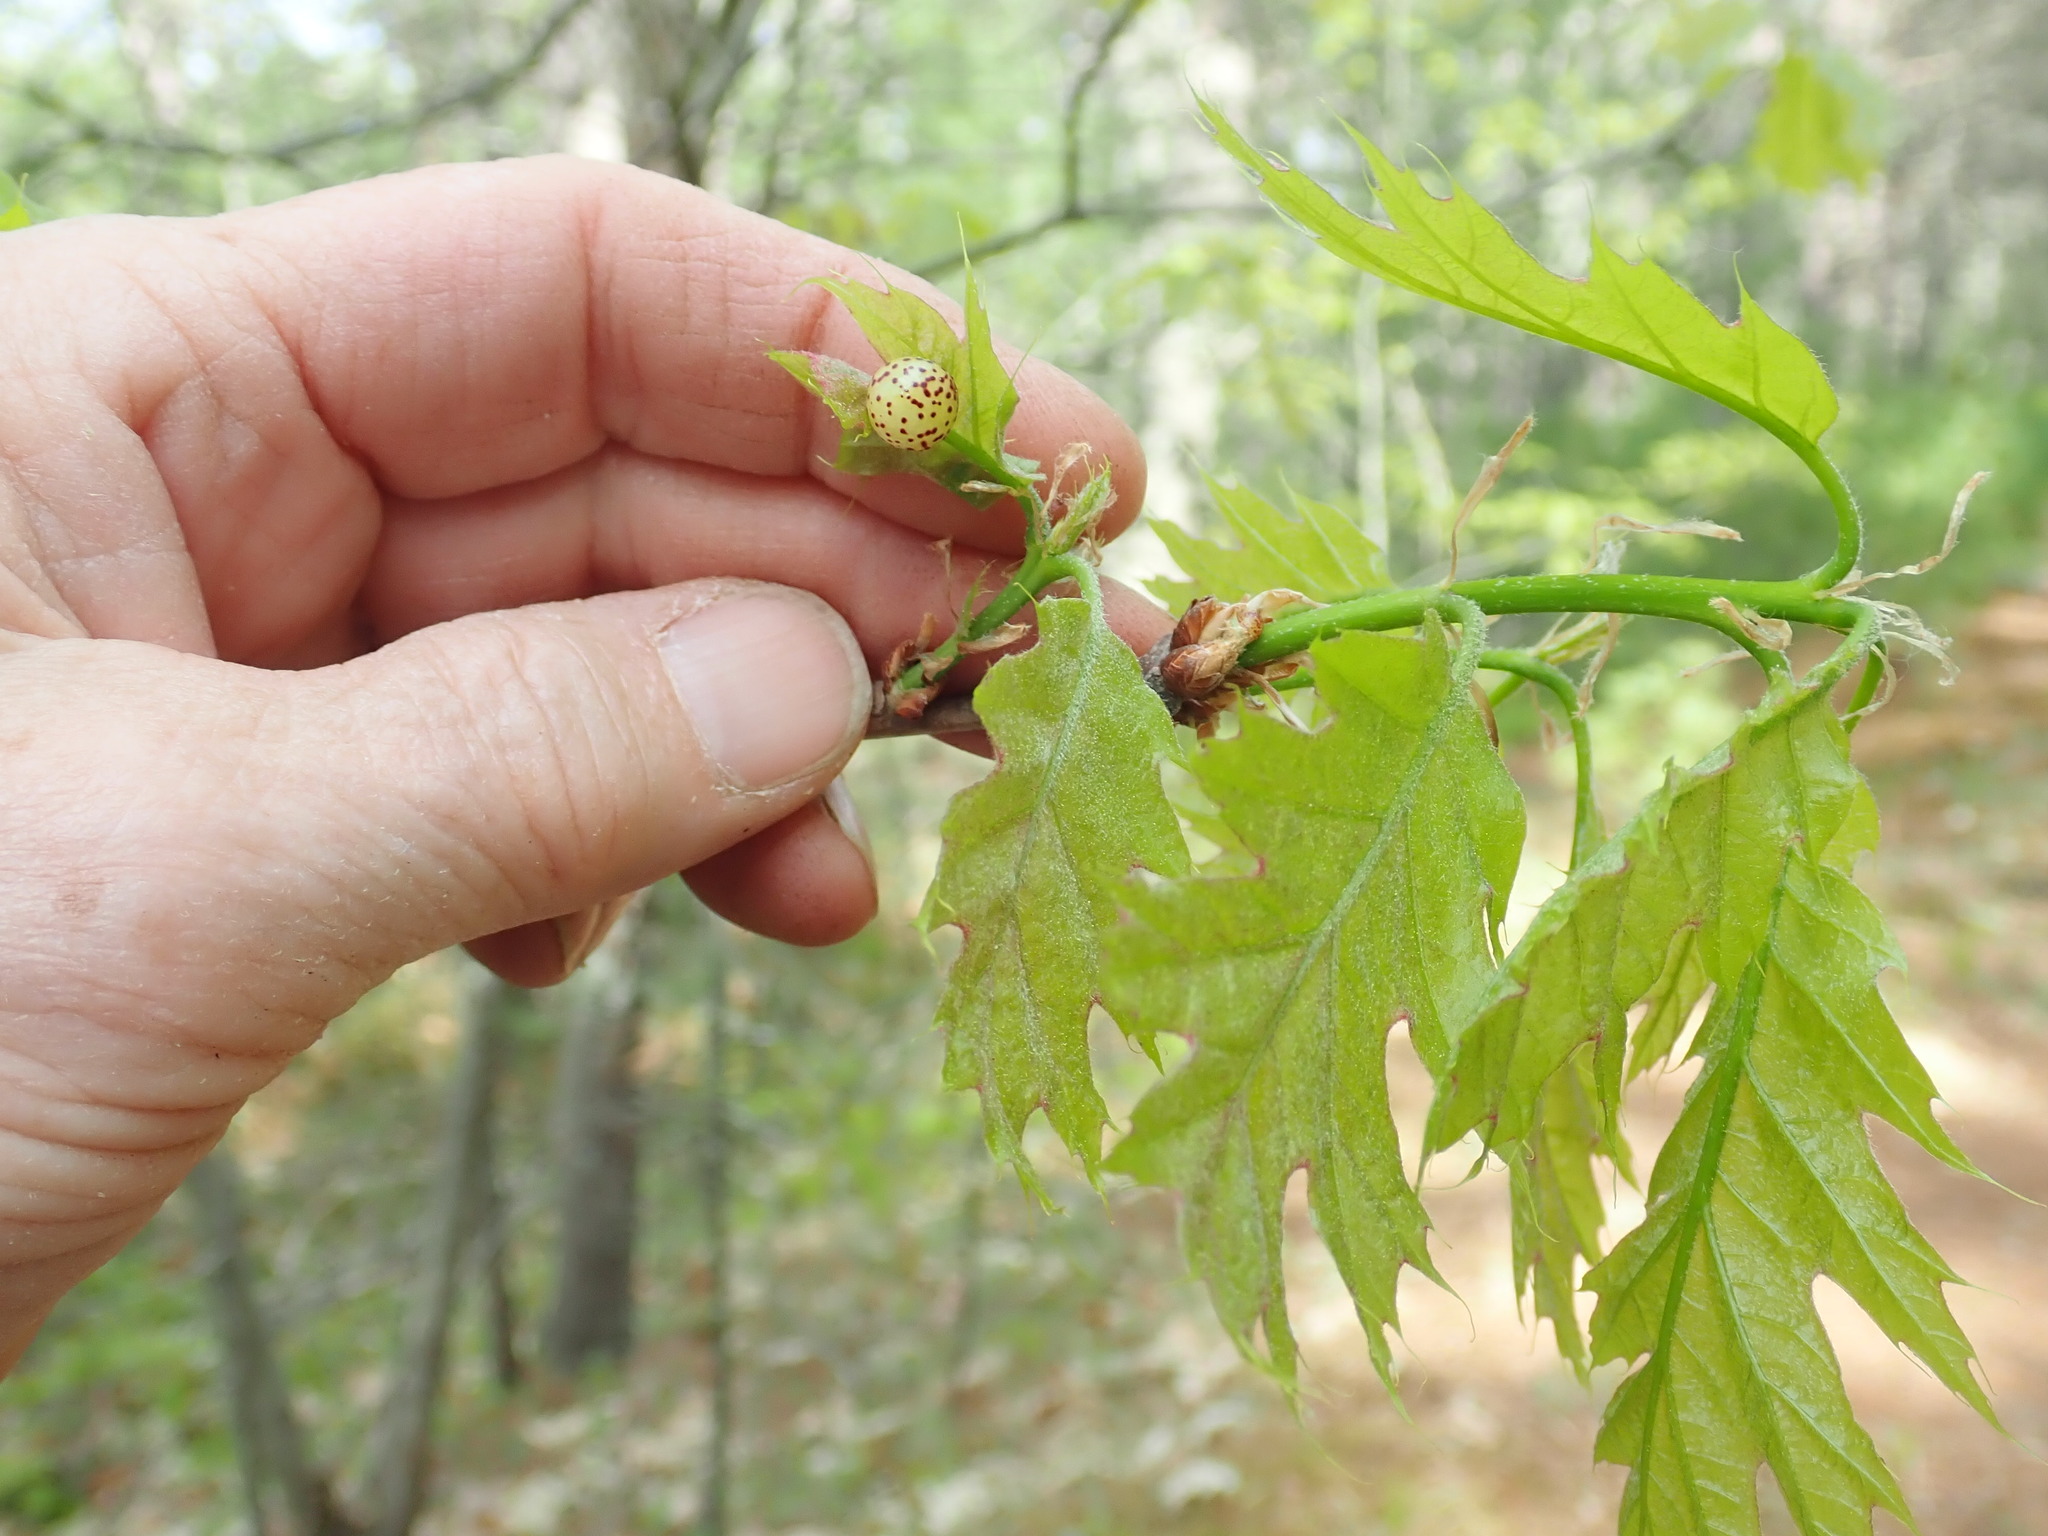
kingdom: Animalia
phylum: Arthropoda
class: Insecta
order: Hymenoptera
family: Cynipidae
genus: Amphibolips
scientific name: Amphibolips
